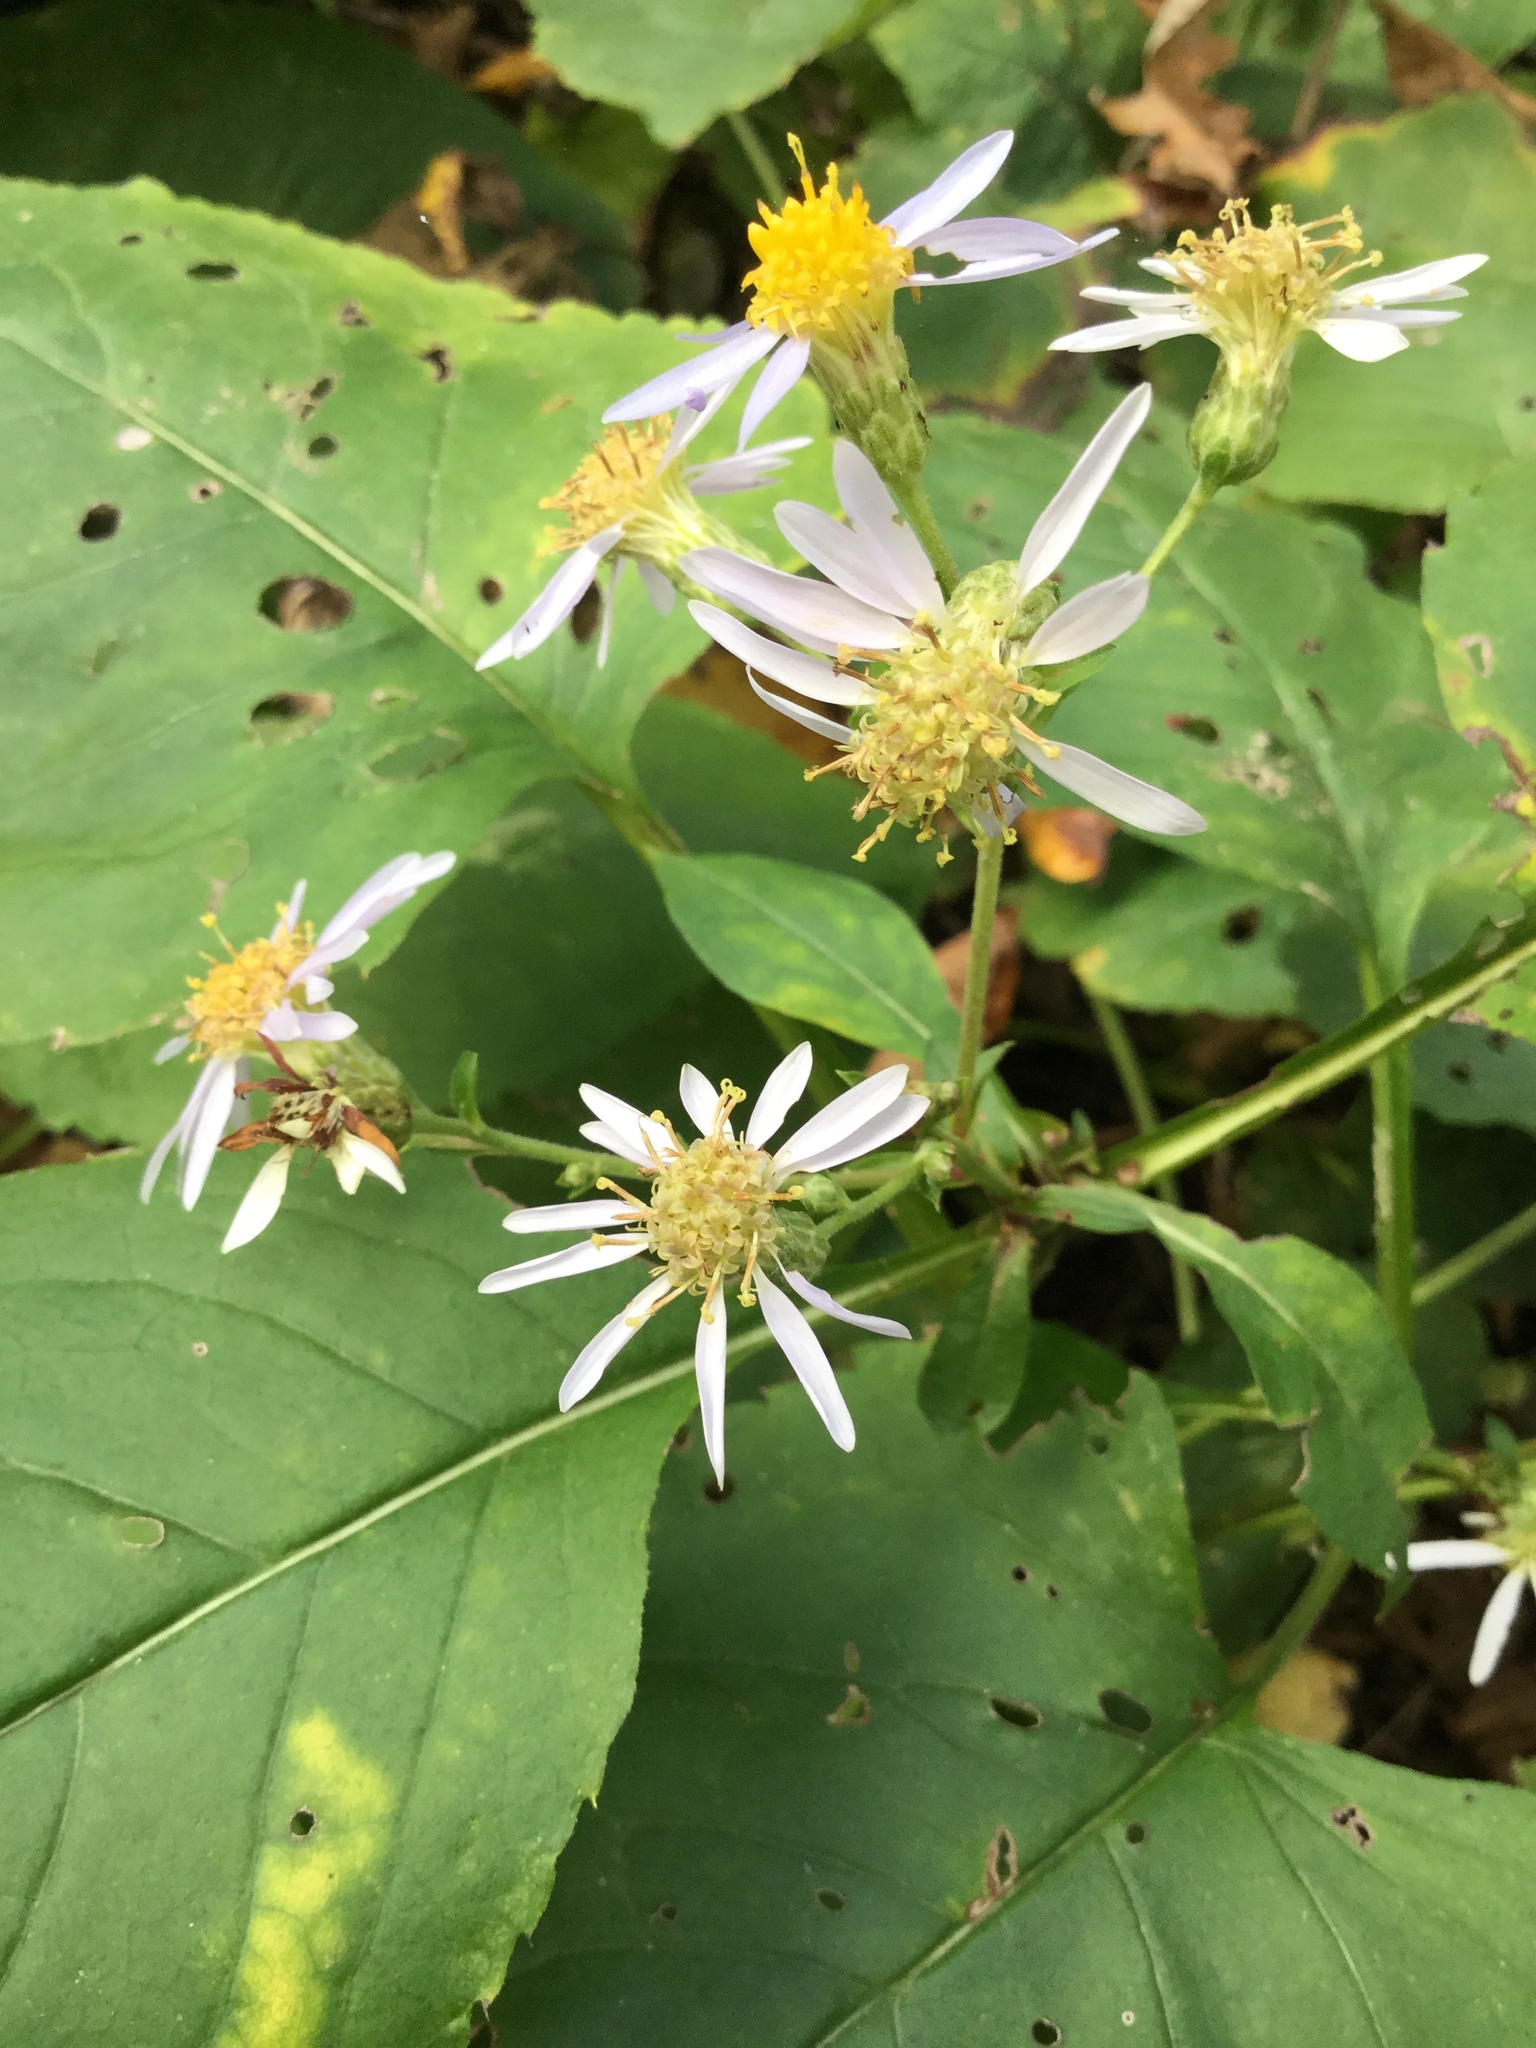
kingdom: Plantae
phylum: Tracheophyta
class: Magnoliopsida
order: Asterales
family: Asteraceae
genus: Eurybia
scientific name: Eurybia macrophylla
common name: Big-leaved aster
